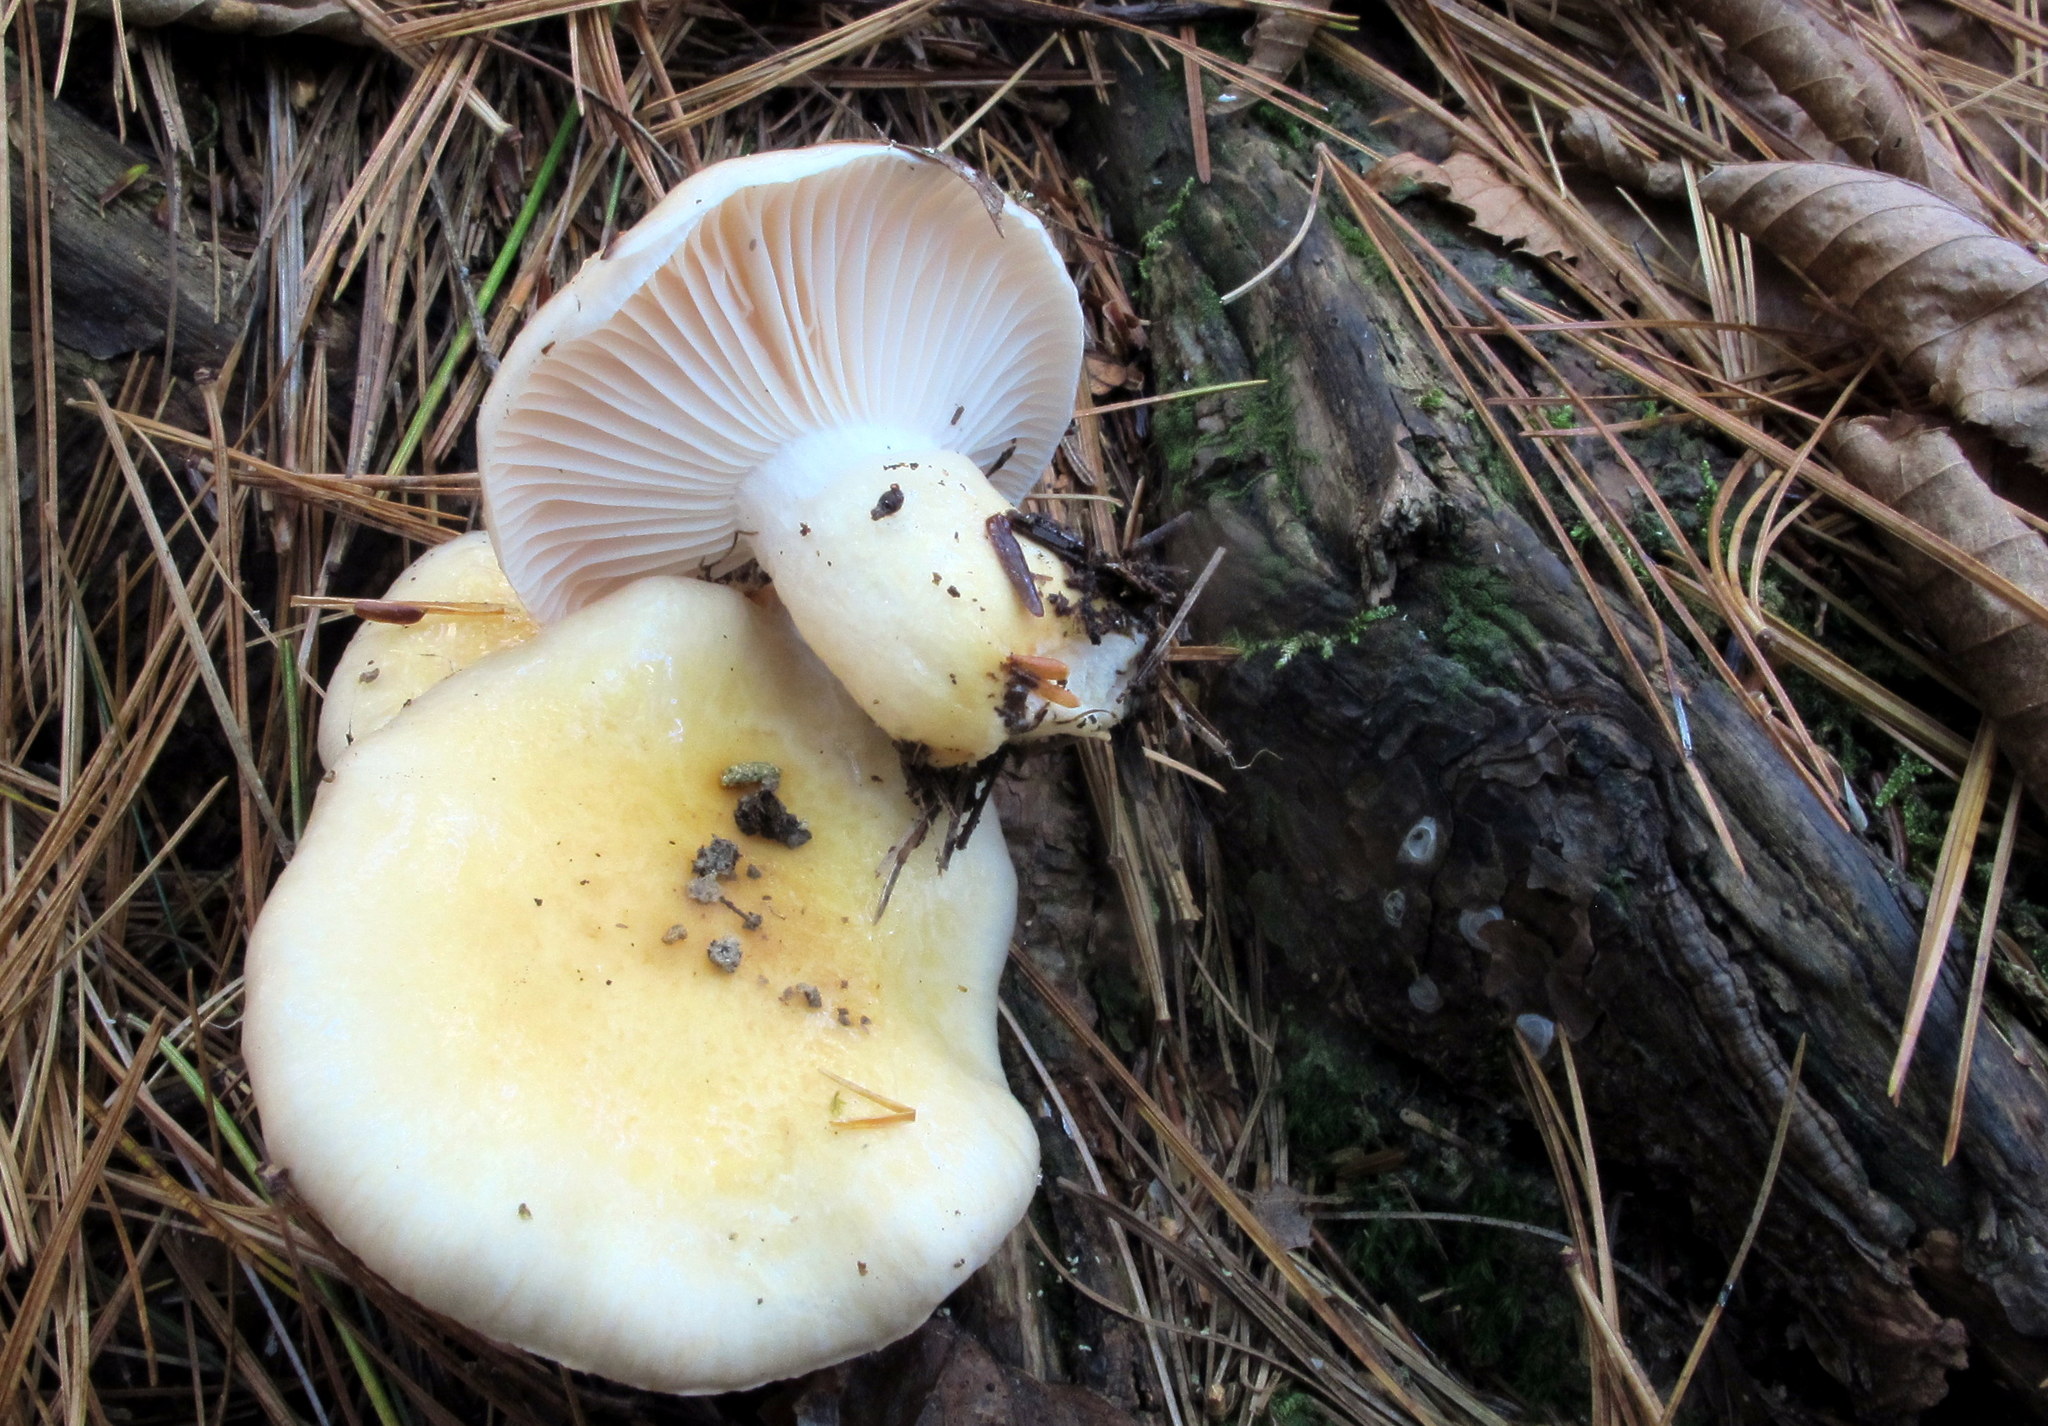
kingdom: Fungi
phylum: Basidiomycota
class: Agaricomycetes
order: Agaricales
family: Hygrophoraceae
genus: Hygrophorus
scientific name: Hygrophorus ligatus
